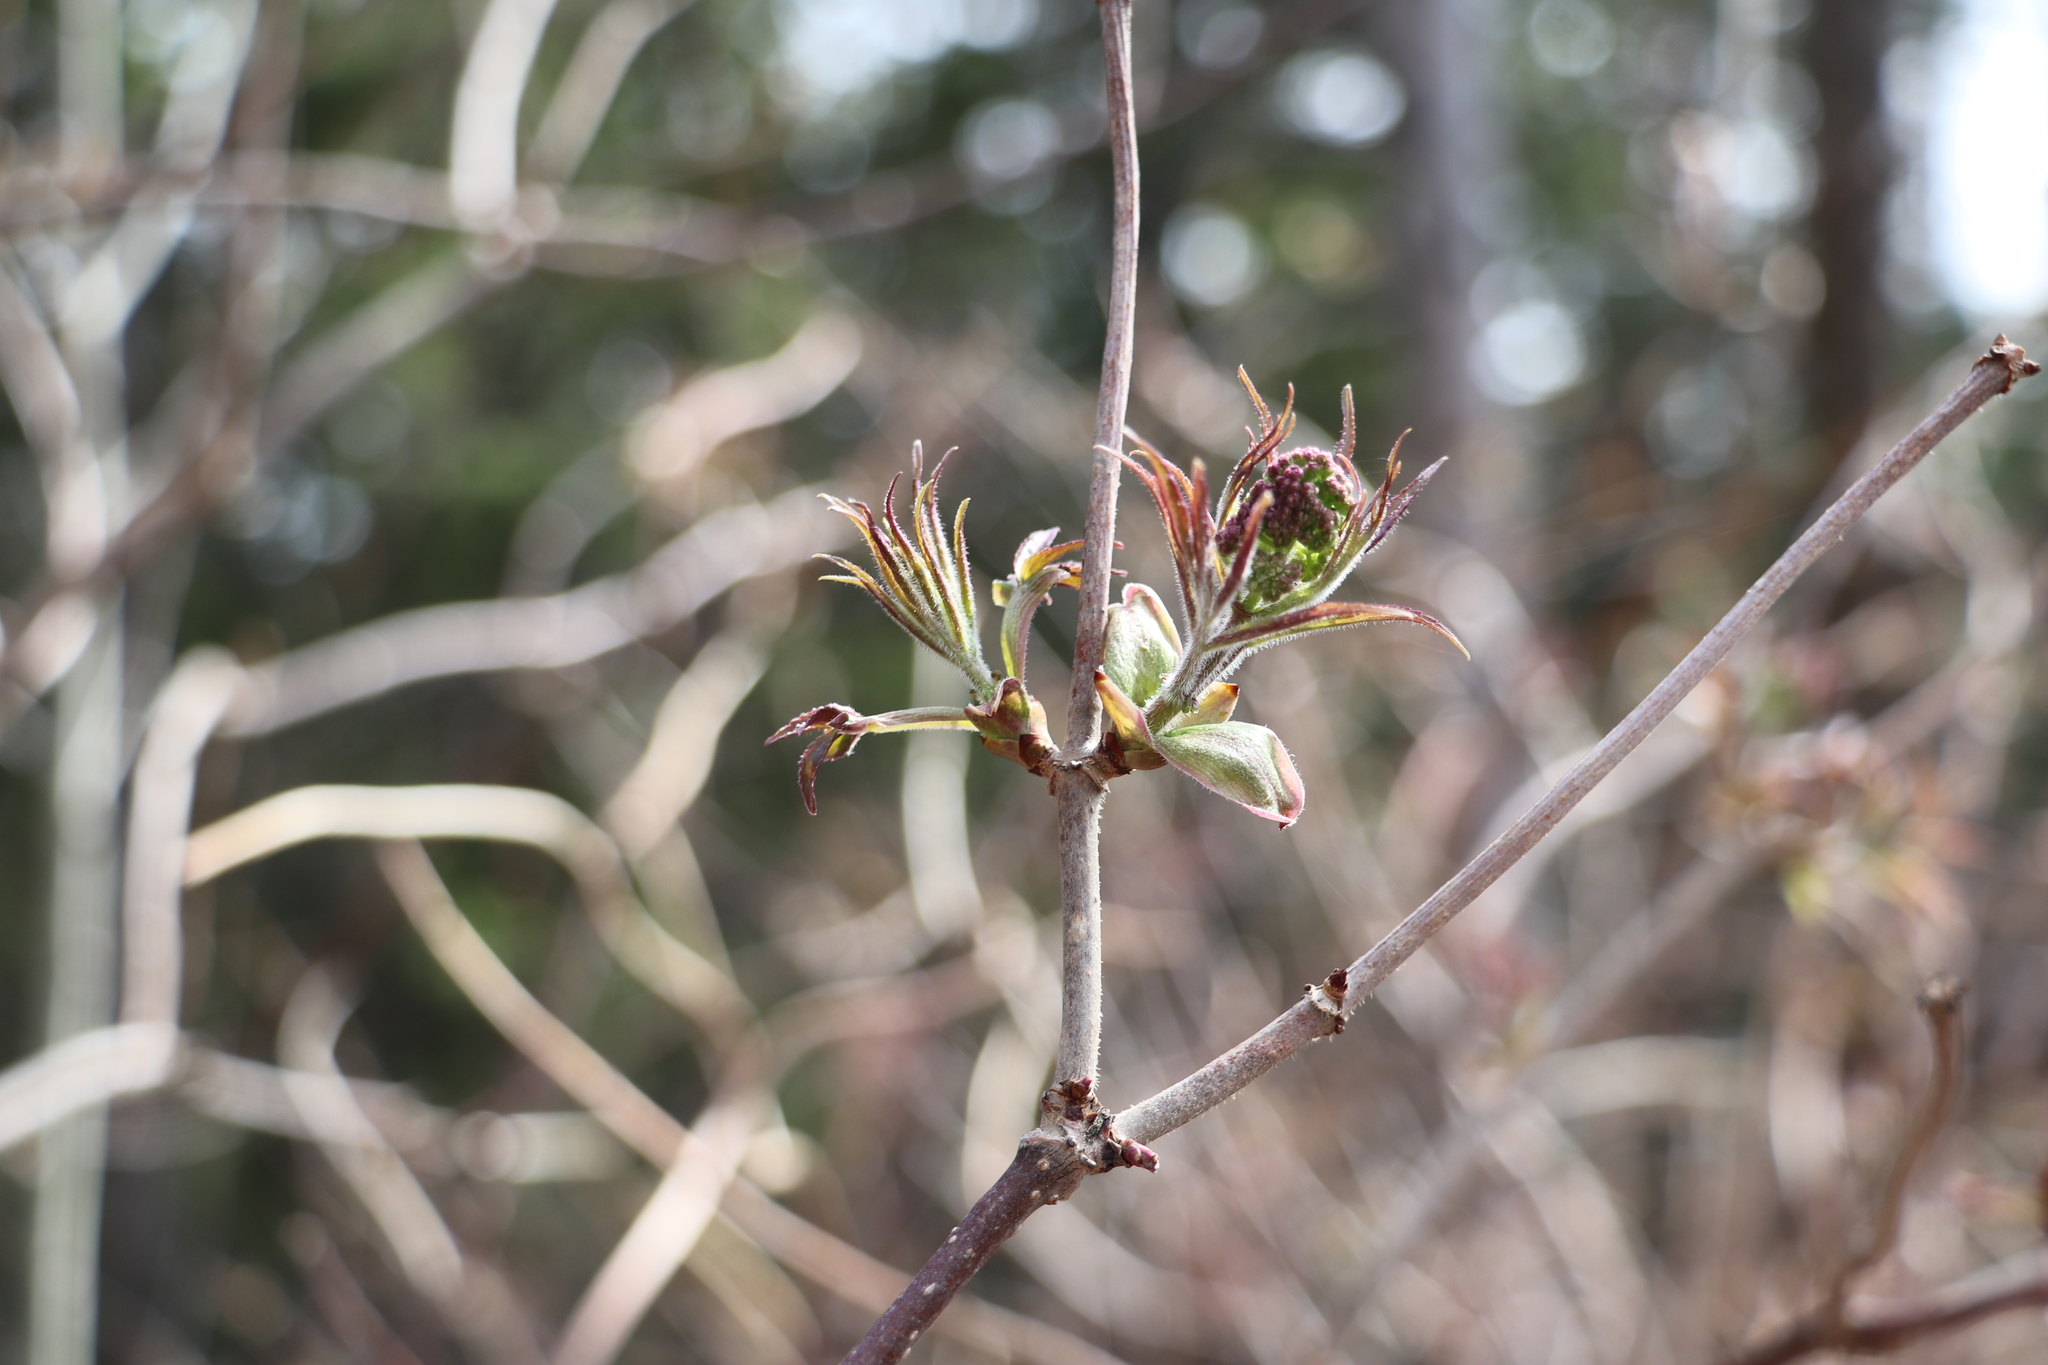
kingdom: Plantae
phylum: Tracheophyta
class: Magnoliopsida
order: Dipsacales
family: Viburnaceae
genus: Sambucus
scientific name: Sambucus sibirica
